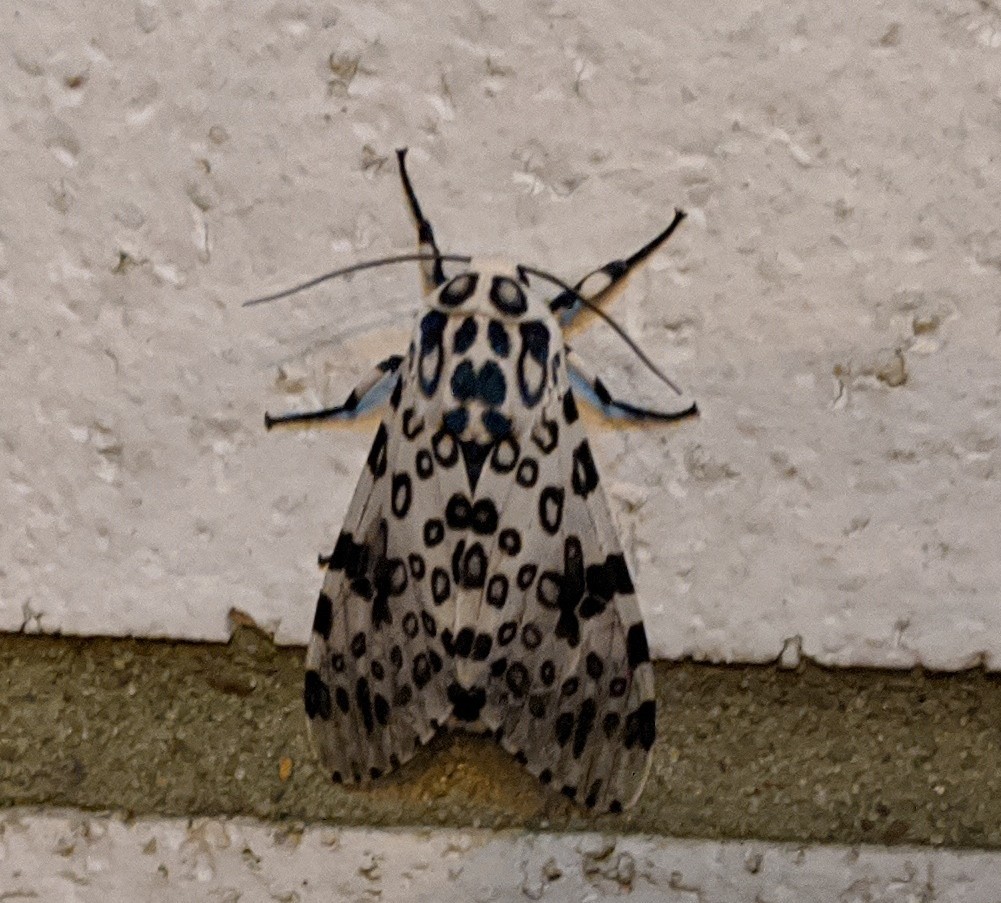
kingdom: Animalia
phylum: Arthropoda
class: Insecta
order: Lepidoptera
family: Erebidae
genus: Hypercompe
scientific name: Hypercompe scribonia
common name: Giant leopard moth
